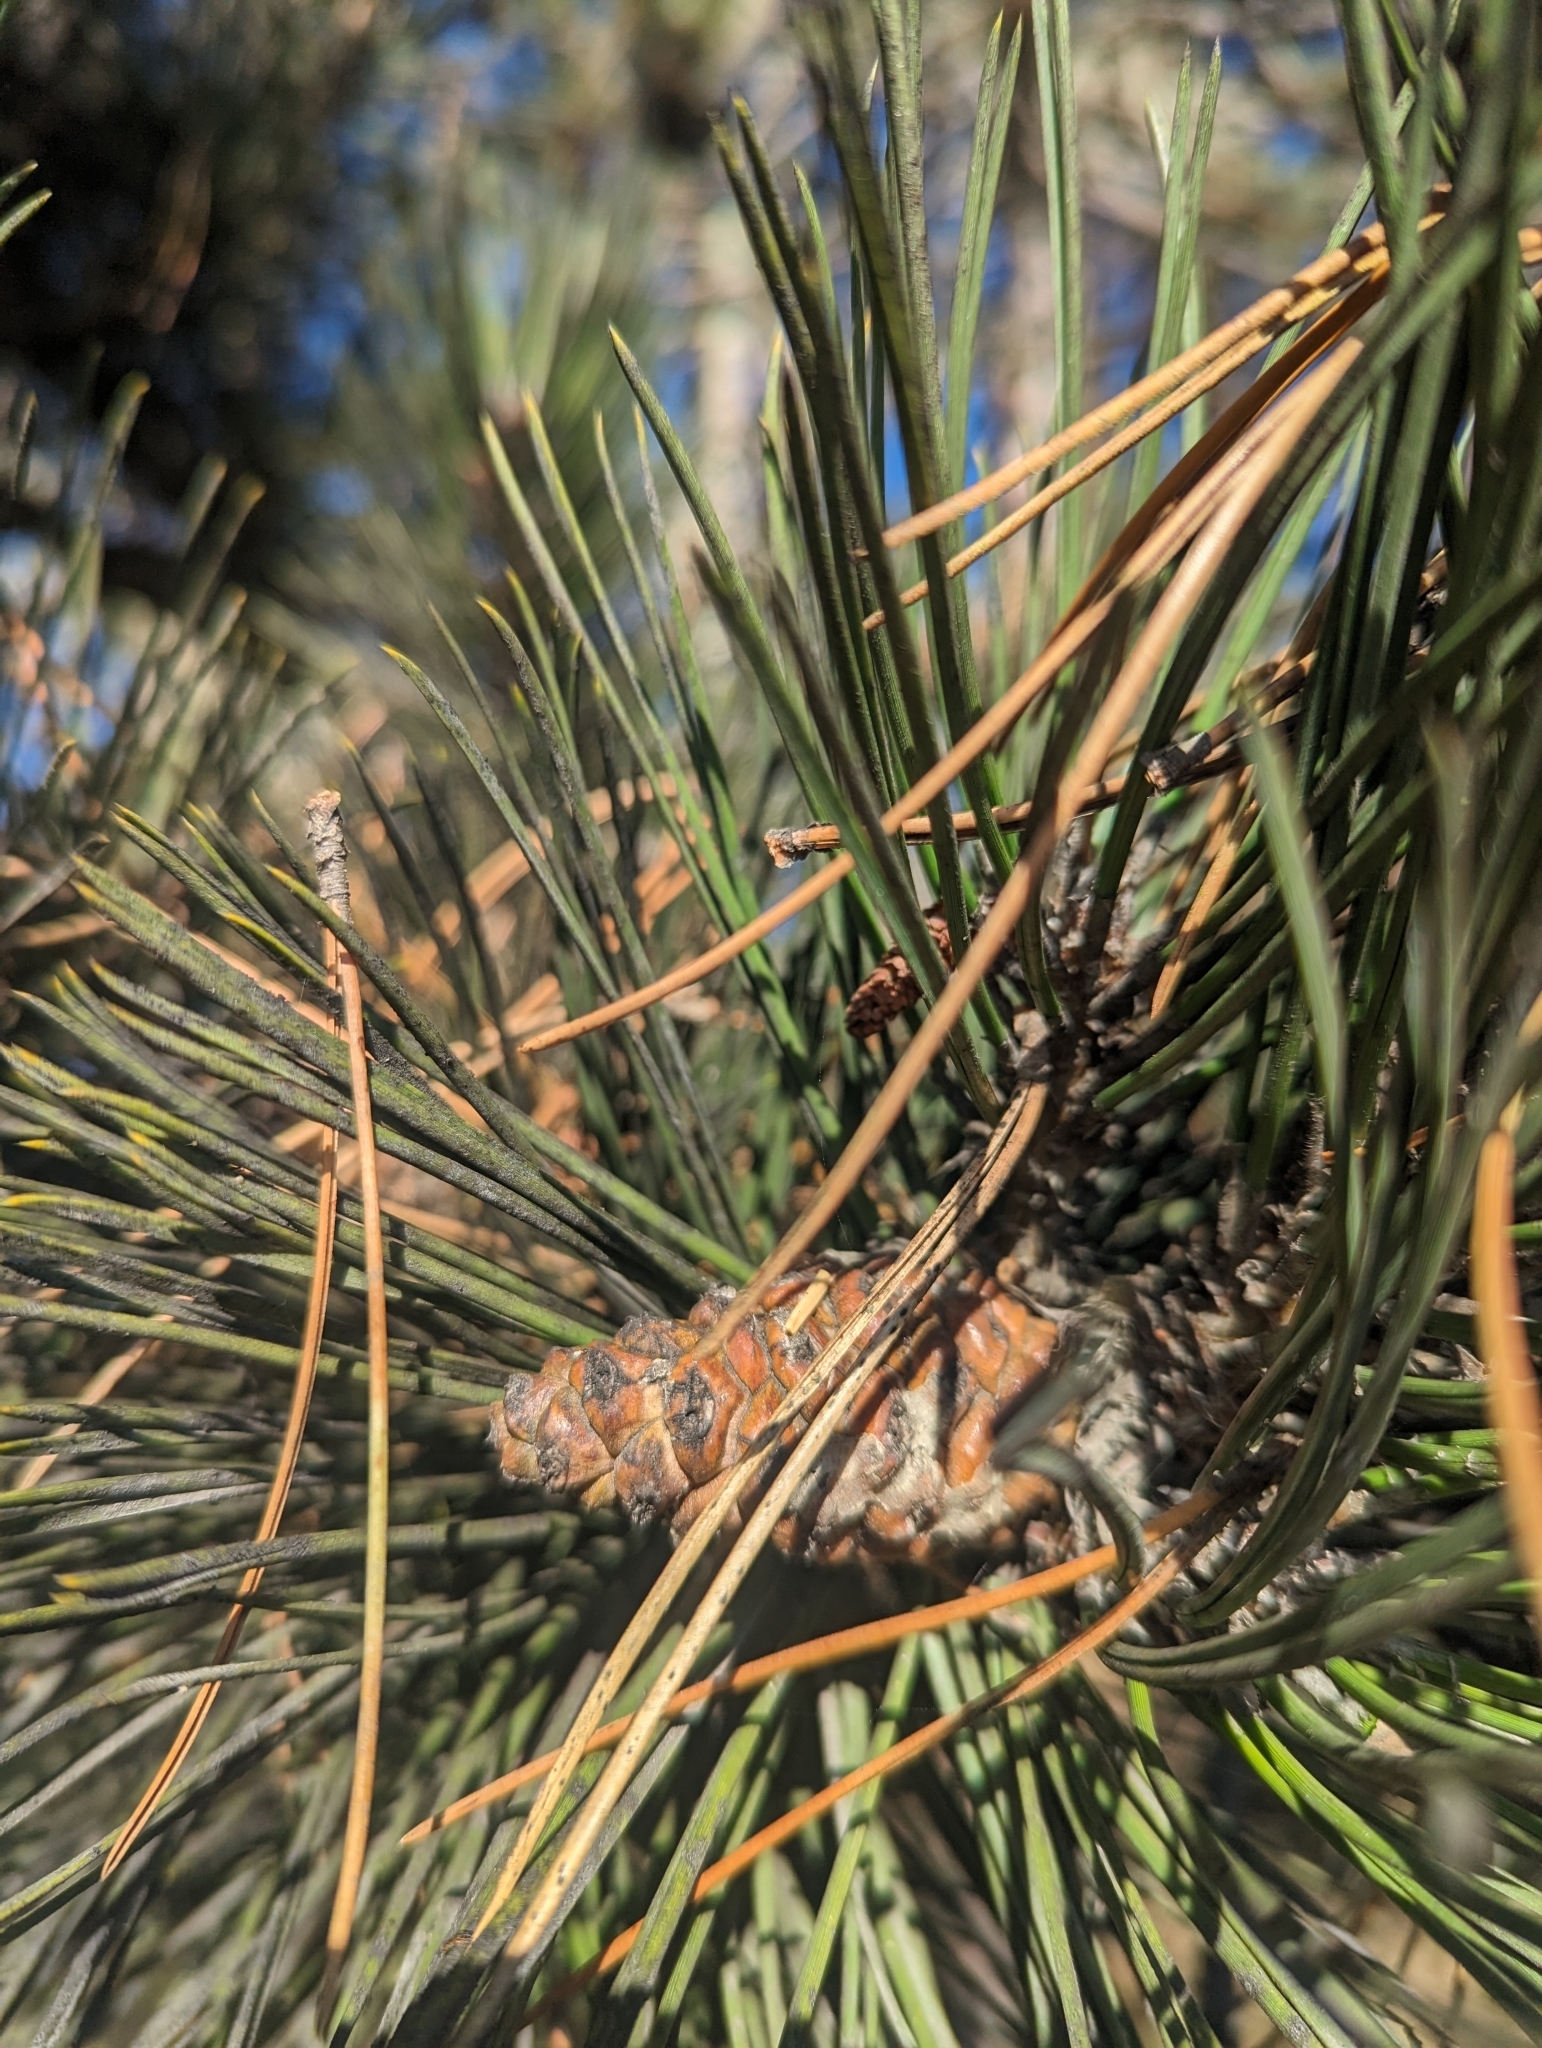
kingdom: Plantae
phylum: Tracheophyta
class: Pinopsida
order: Pinales
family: Pinaceae
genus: Pinus
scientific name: Pinus contorta
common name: Lodgepole pine
